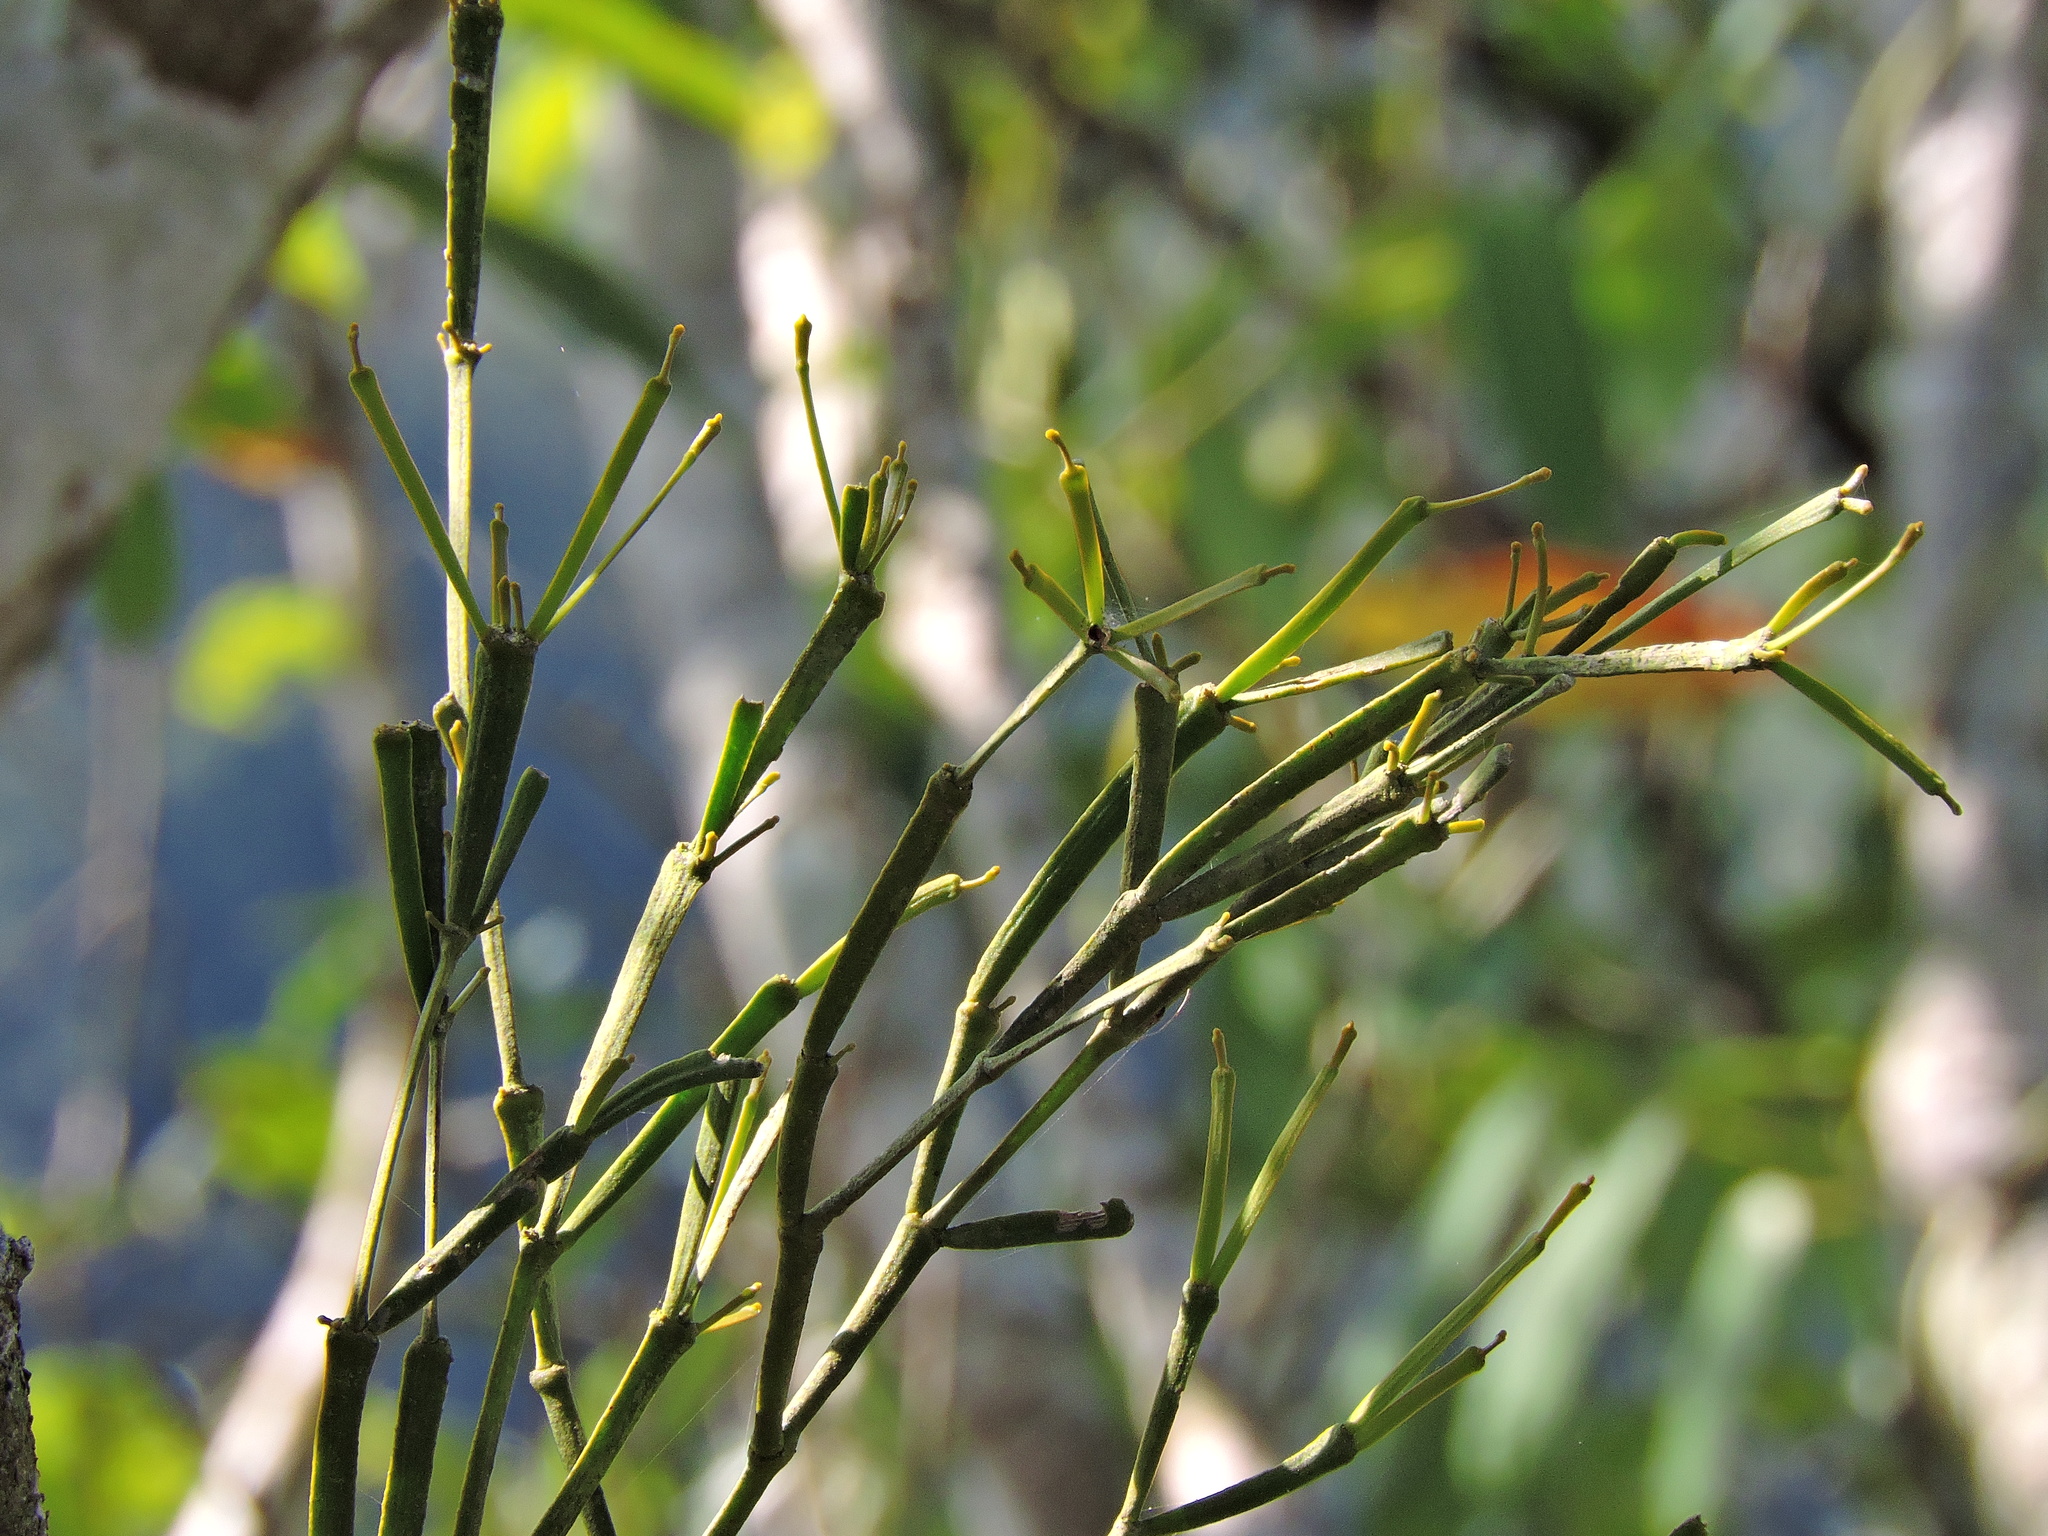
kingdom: Plantae
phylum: Tracheophyta
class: Magnoliopsida
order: Santalales
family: Viscaceae
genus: Viscum
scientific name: Viscum liquidambaricola
